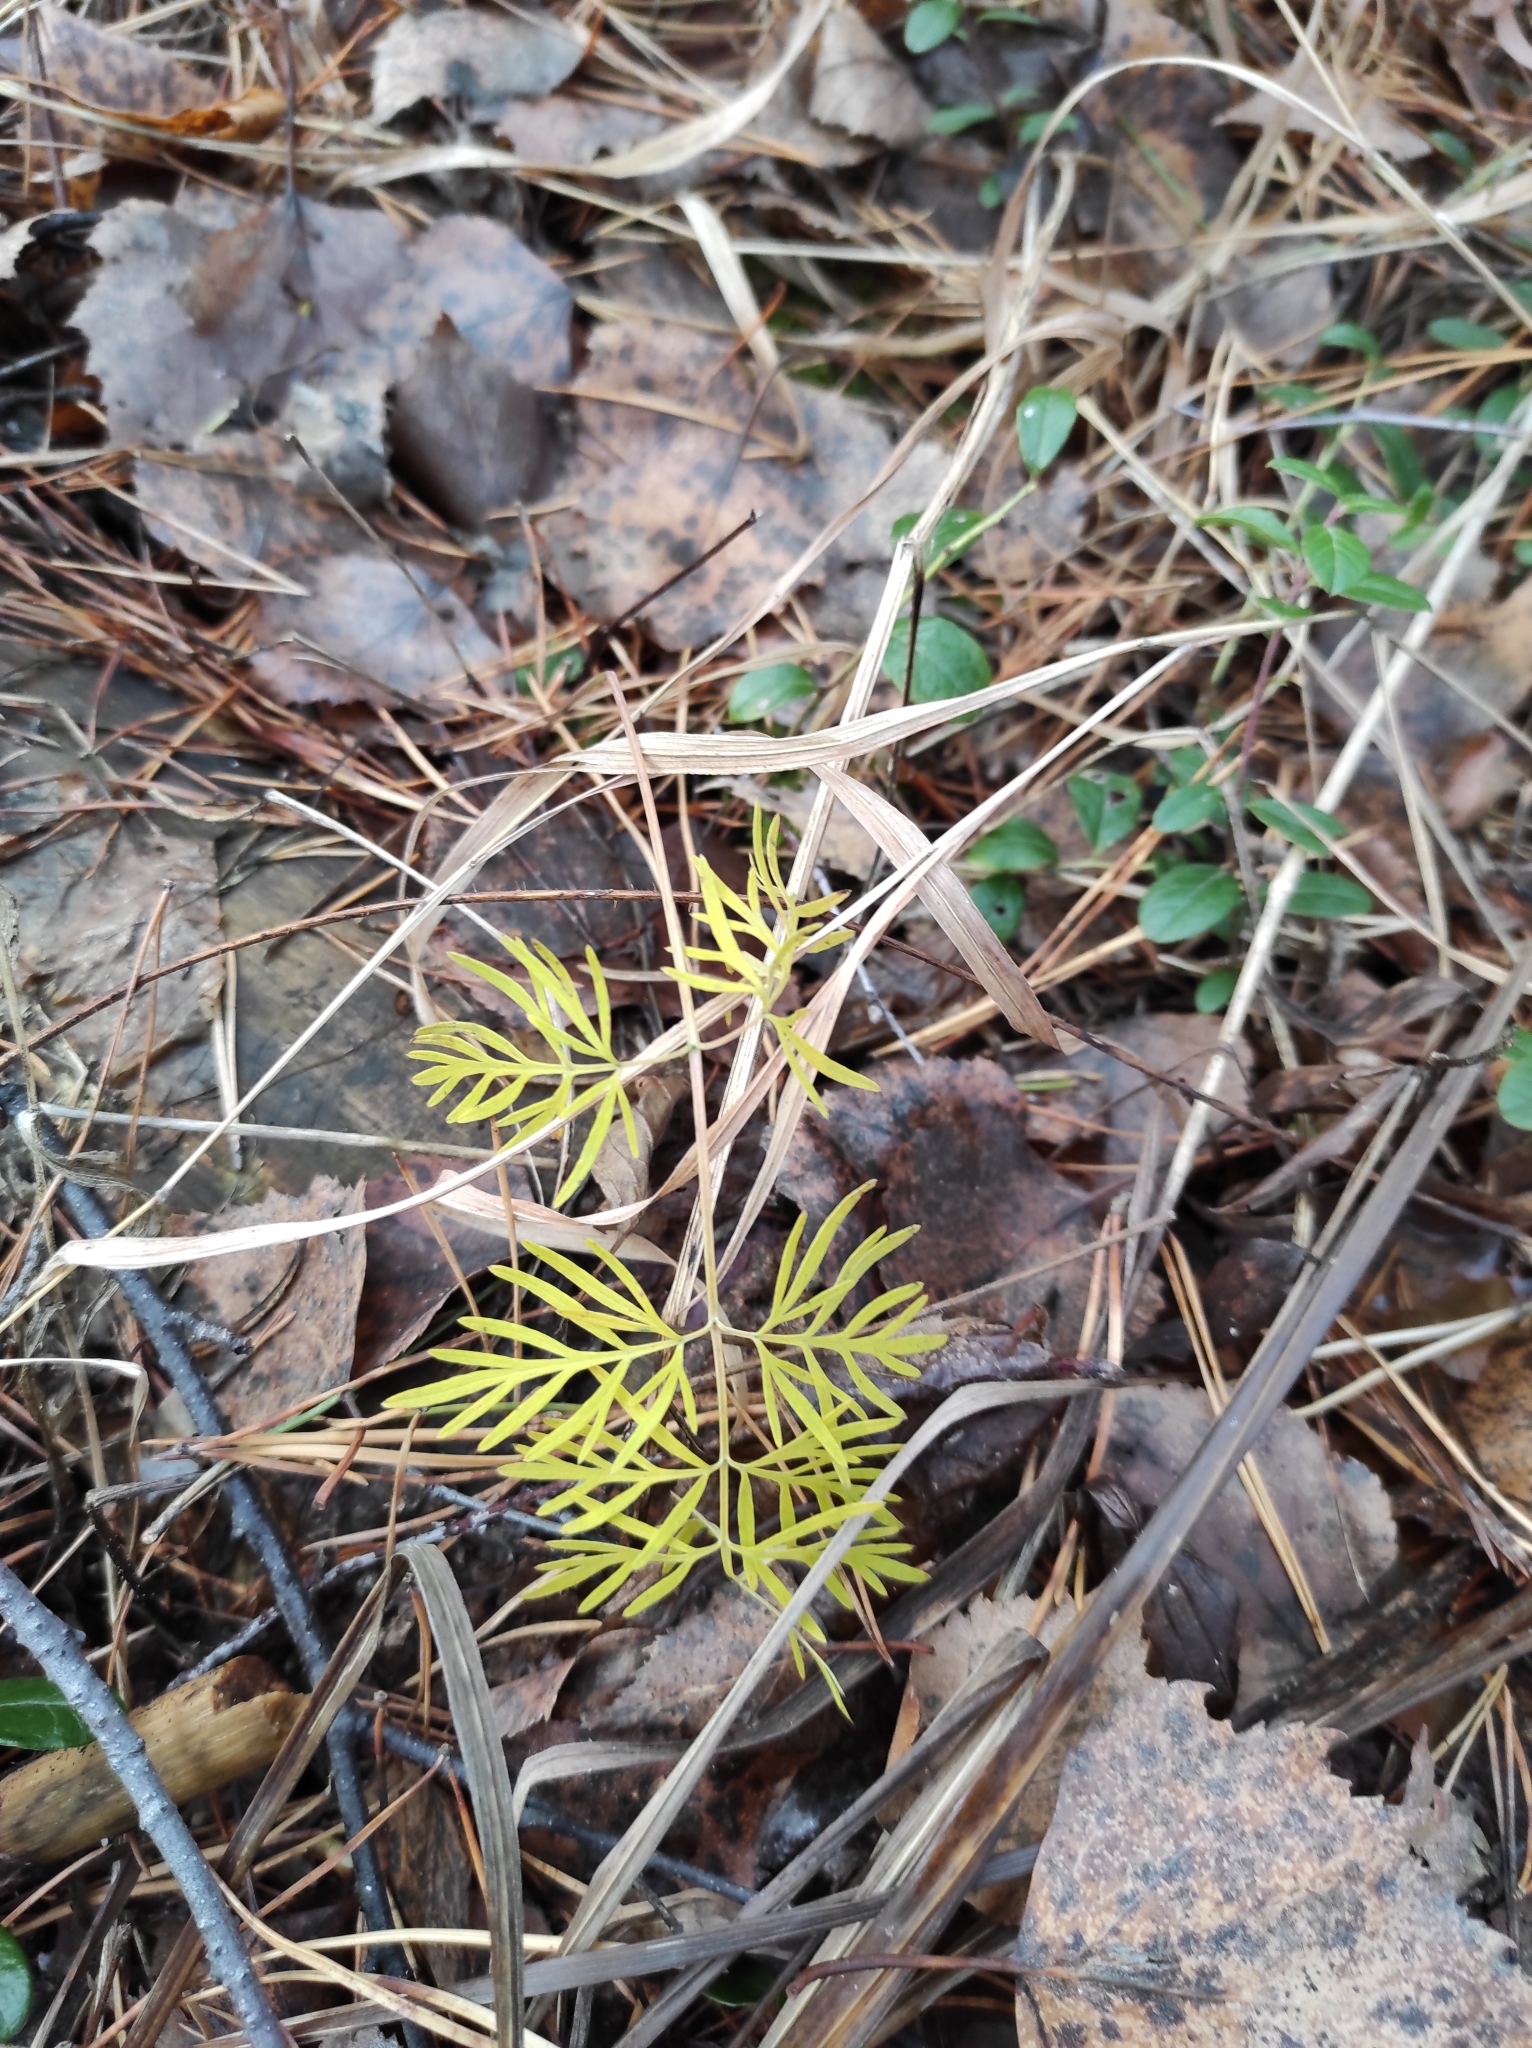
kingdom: Plantae
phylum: Tracheophyta
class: Magnoliopsida
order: Apiales
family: Apiaceae
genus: Kadenia
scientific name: Kadenia dubia
